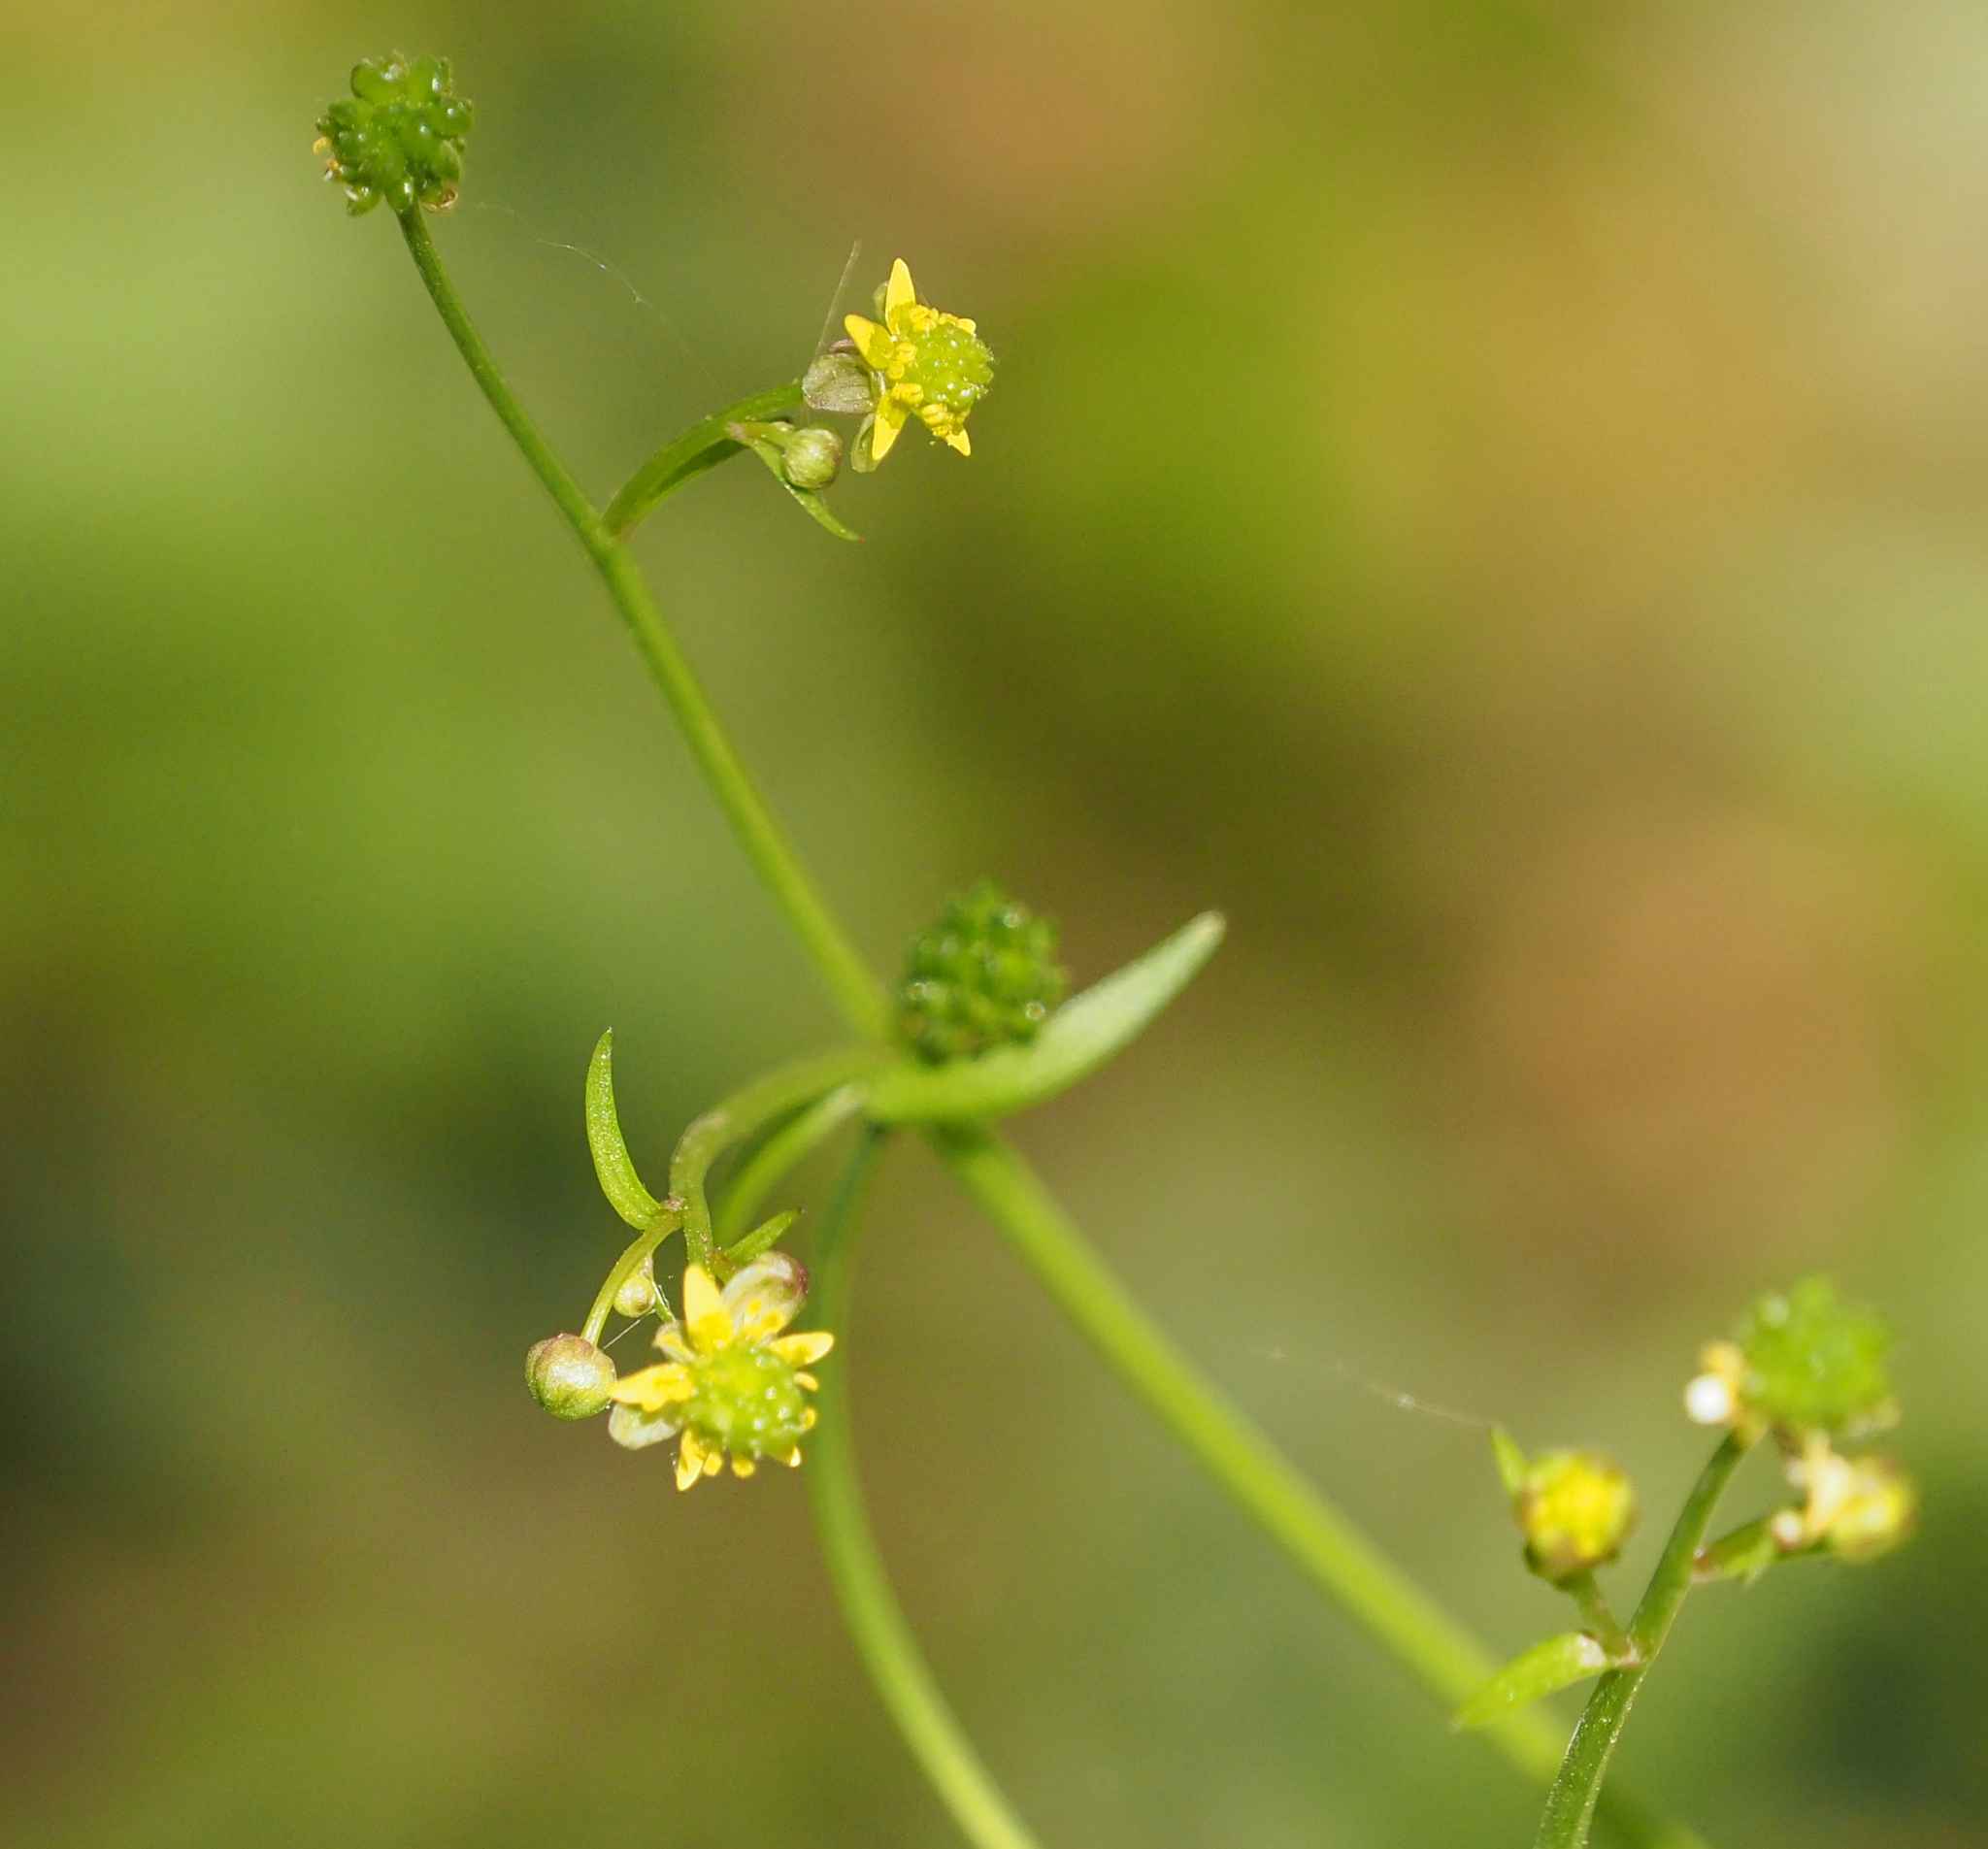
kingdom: Plantae
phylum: Tracheophyta
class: Magnoliopsida
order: Ranunculales
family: Ranunculaceae
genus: Ranunculus
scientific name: Ranunculus abortivus
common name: Early wood buttercup
